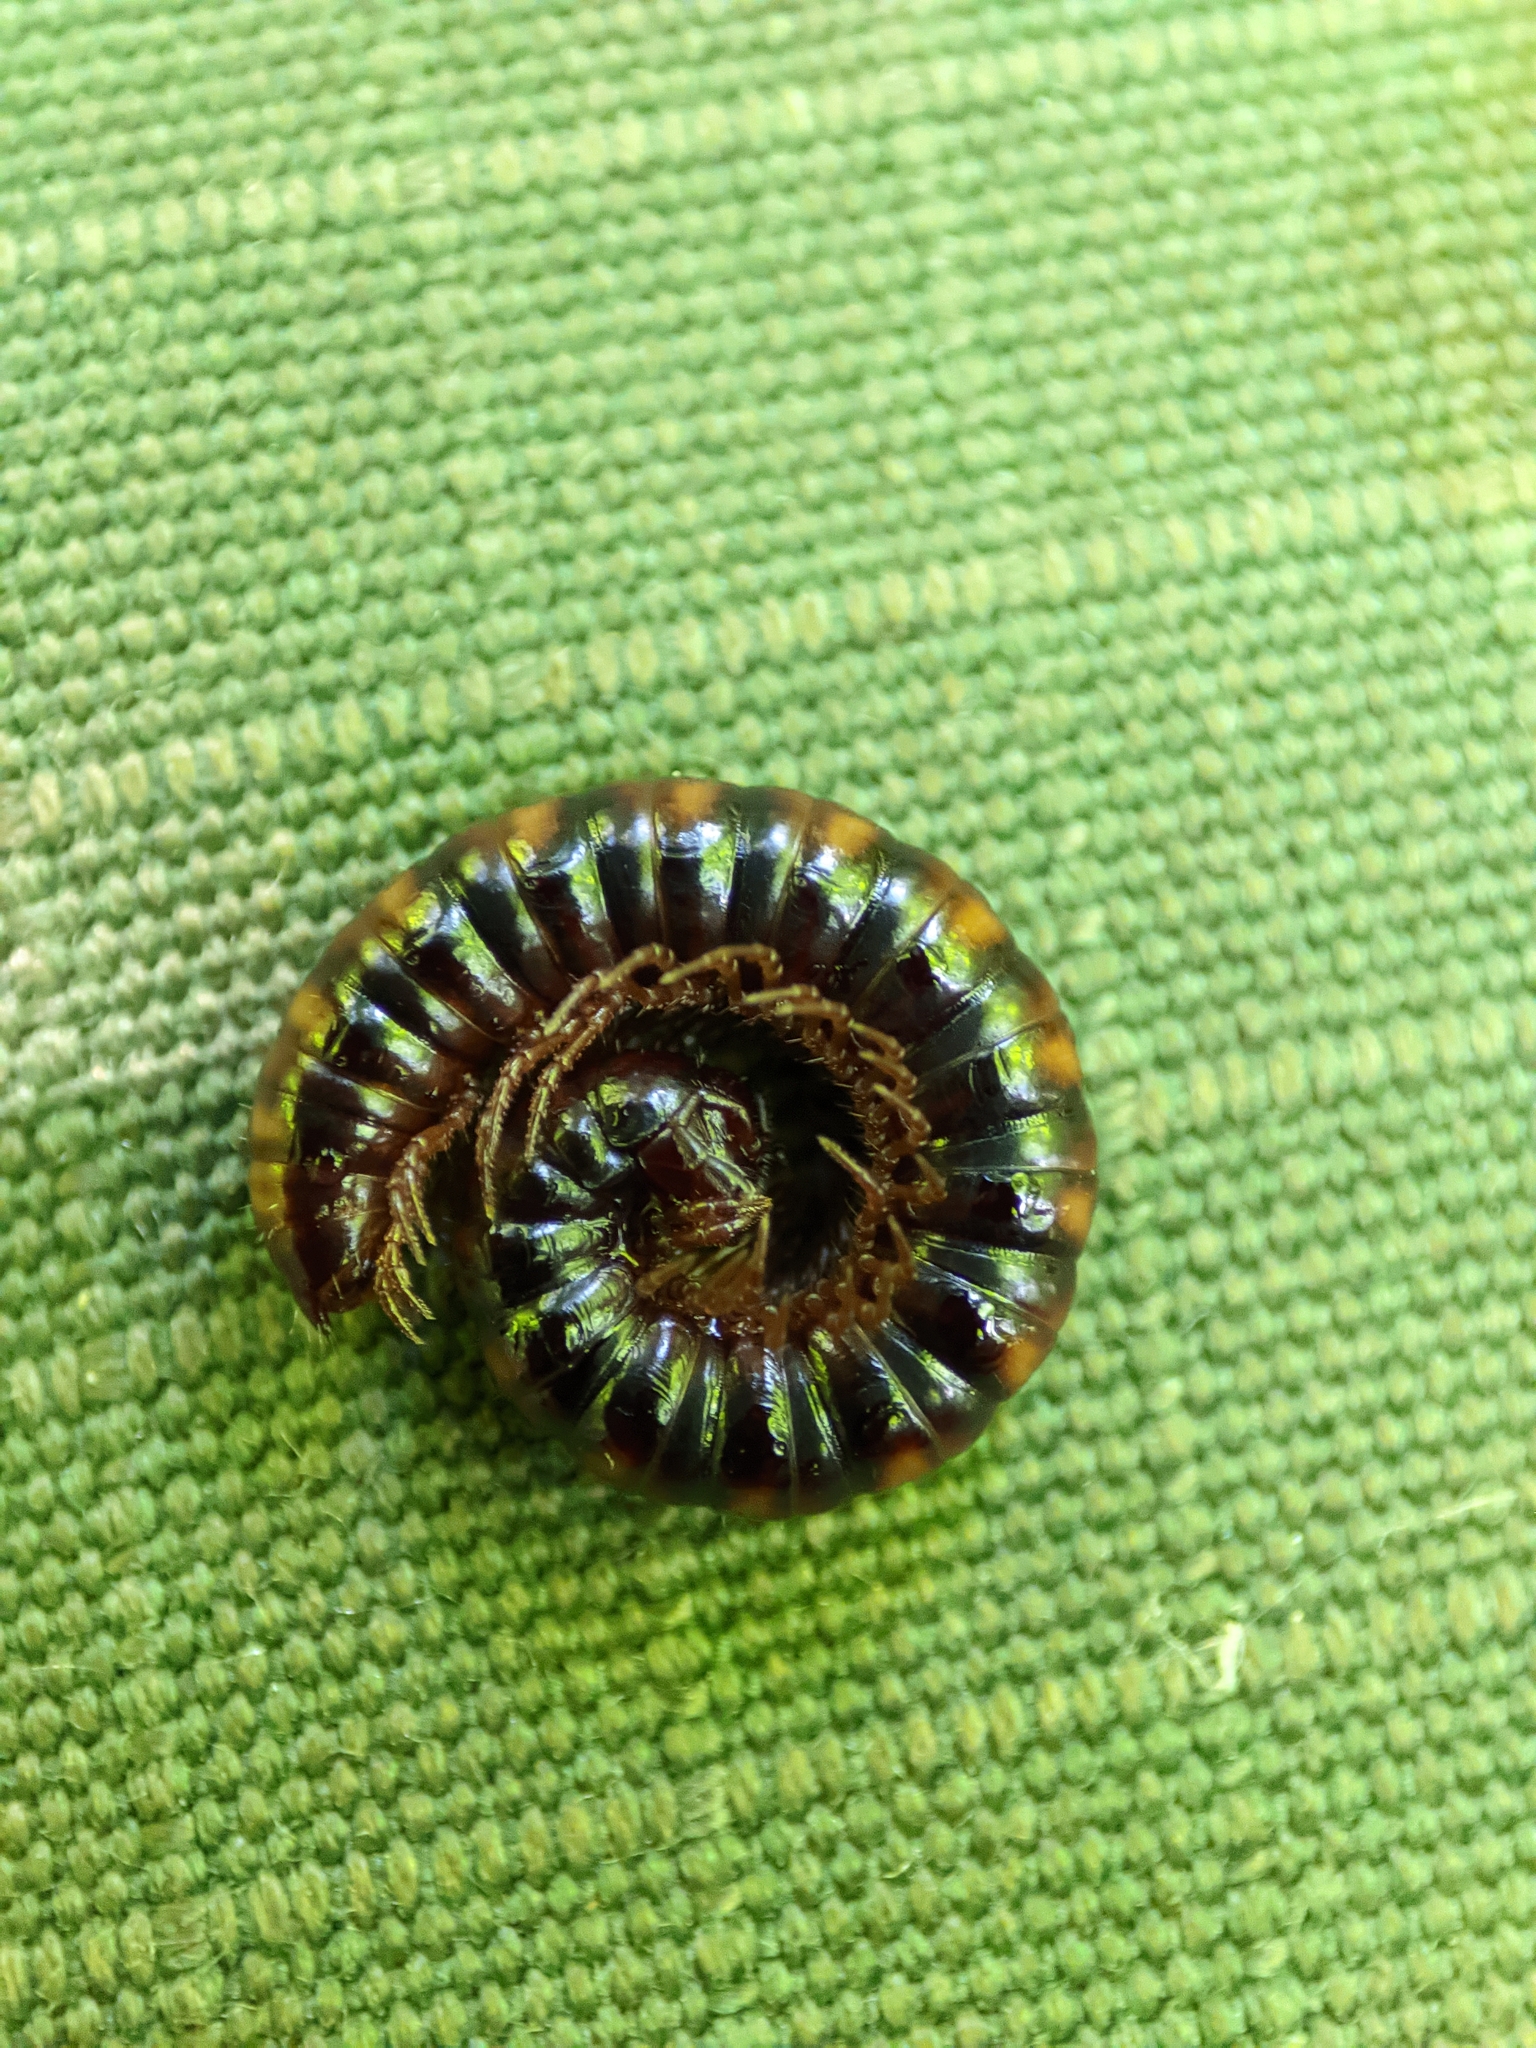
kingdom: Animalia
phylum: Arthropoda
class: Diplopoda
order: Polydesmida
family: Paradoxosomatidae
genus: Strongylosoma
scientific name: Strongylosoma stigmatosus
